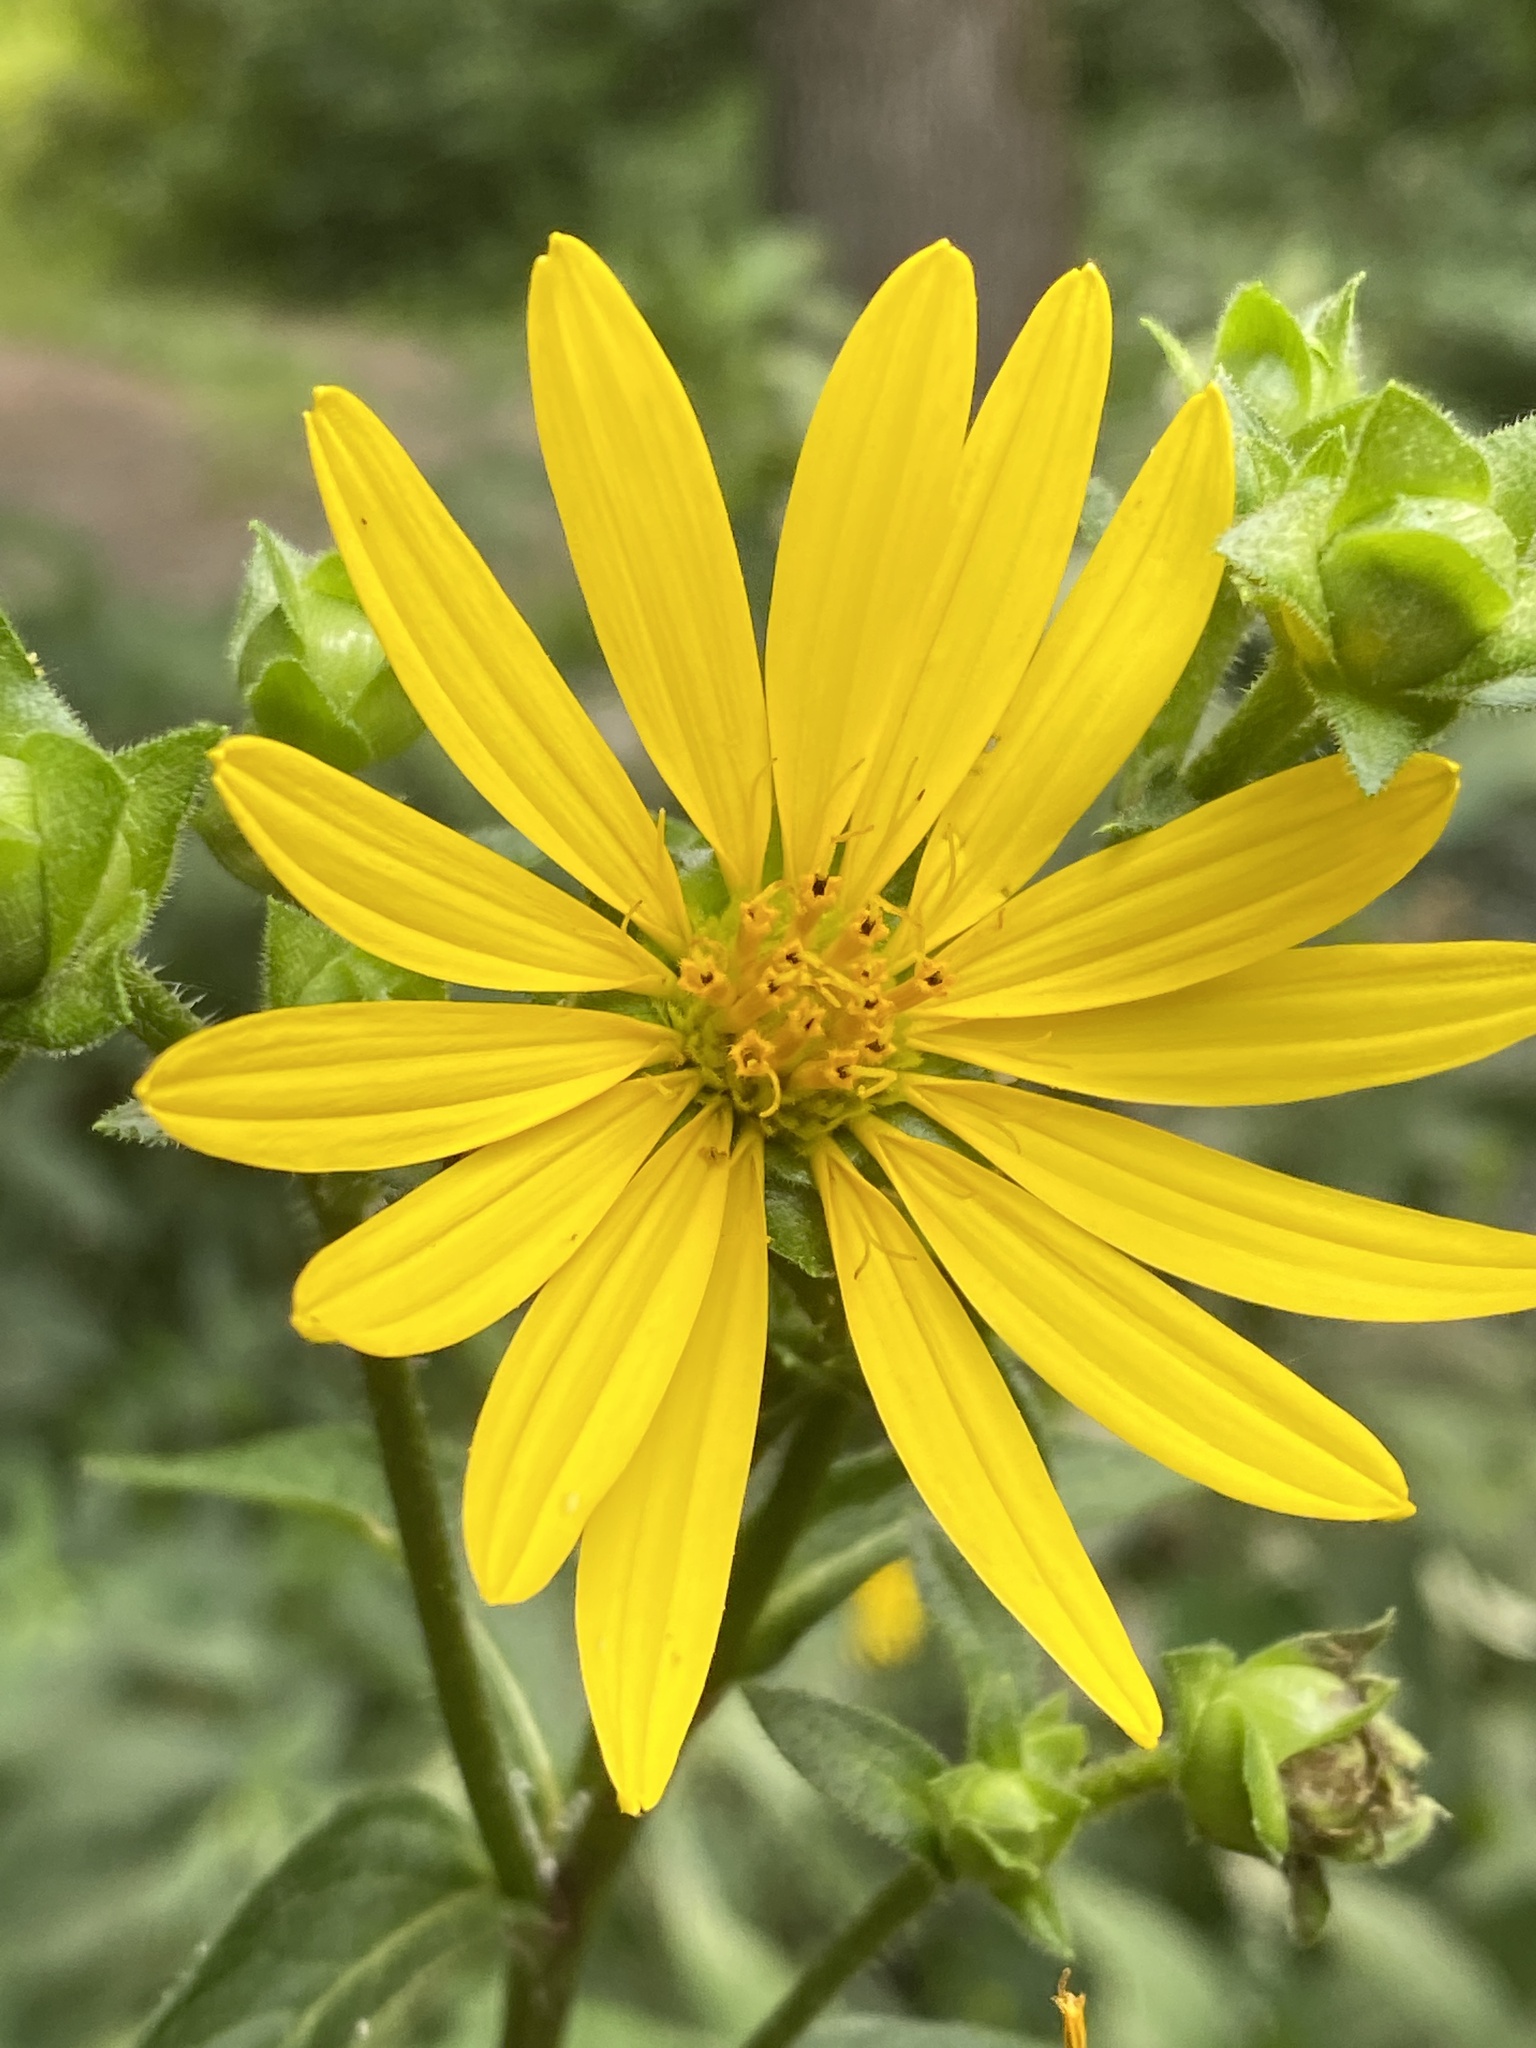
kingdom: Plantae
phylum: Tracheophyta
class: Magnoliopsida
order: Asterales
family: Asteraceae
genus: Silphium
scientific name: Silphium asteriscus
